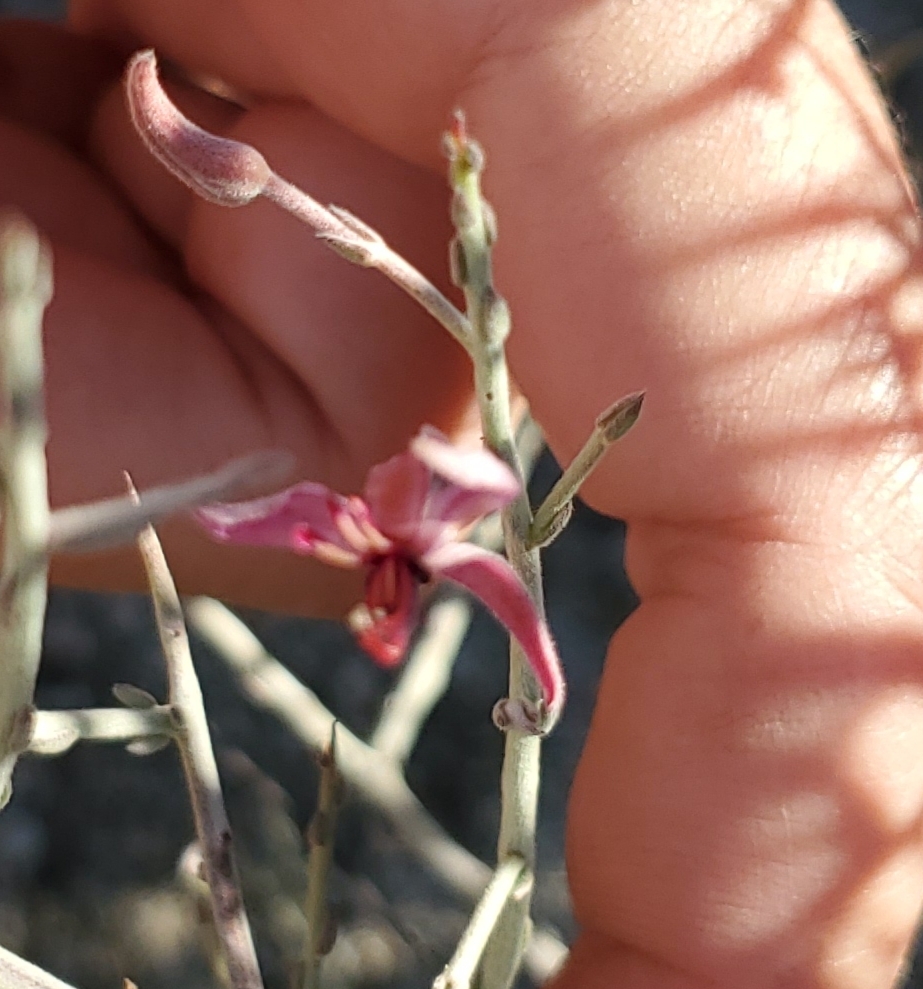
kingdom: Plantae
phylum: Tracheophyta
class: Magnoliopsida
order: Zygophyllales
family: Krameriaceae
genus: Krameria
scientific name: Krameria bicolor
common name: White ratany
